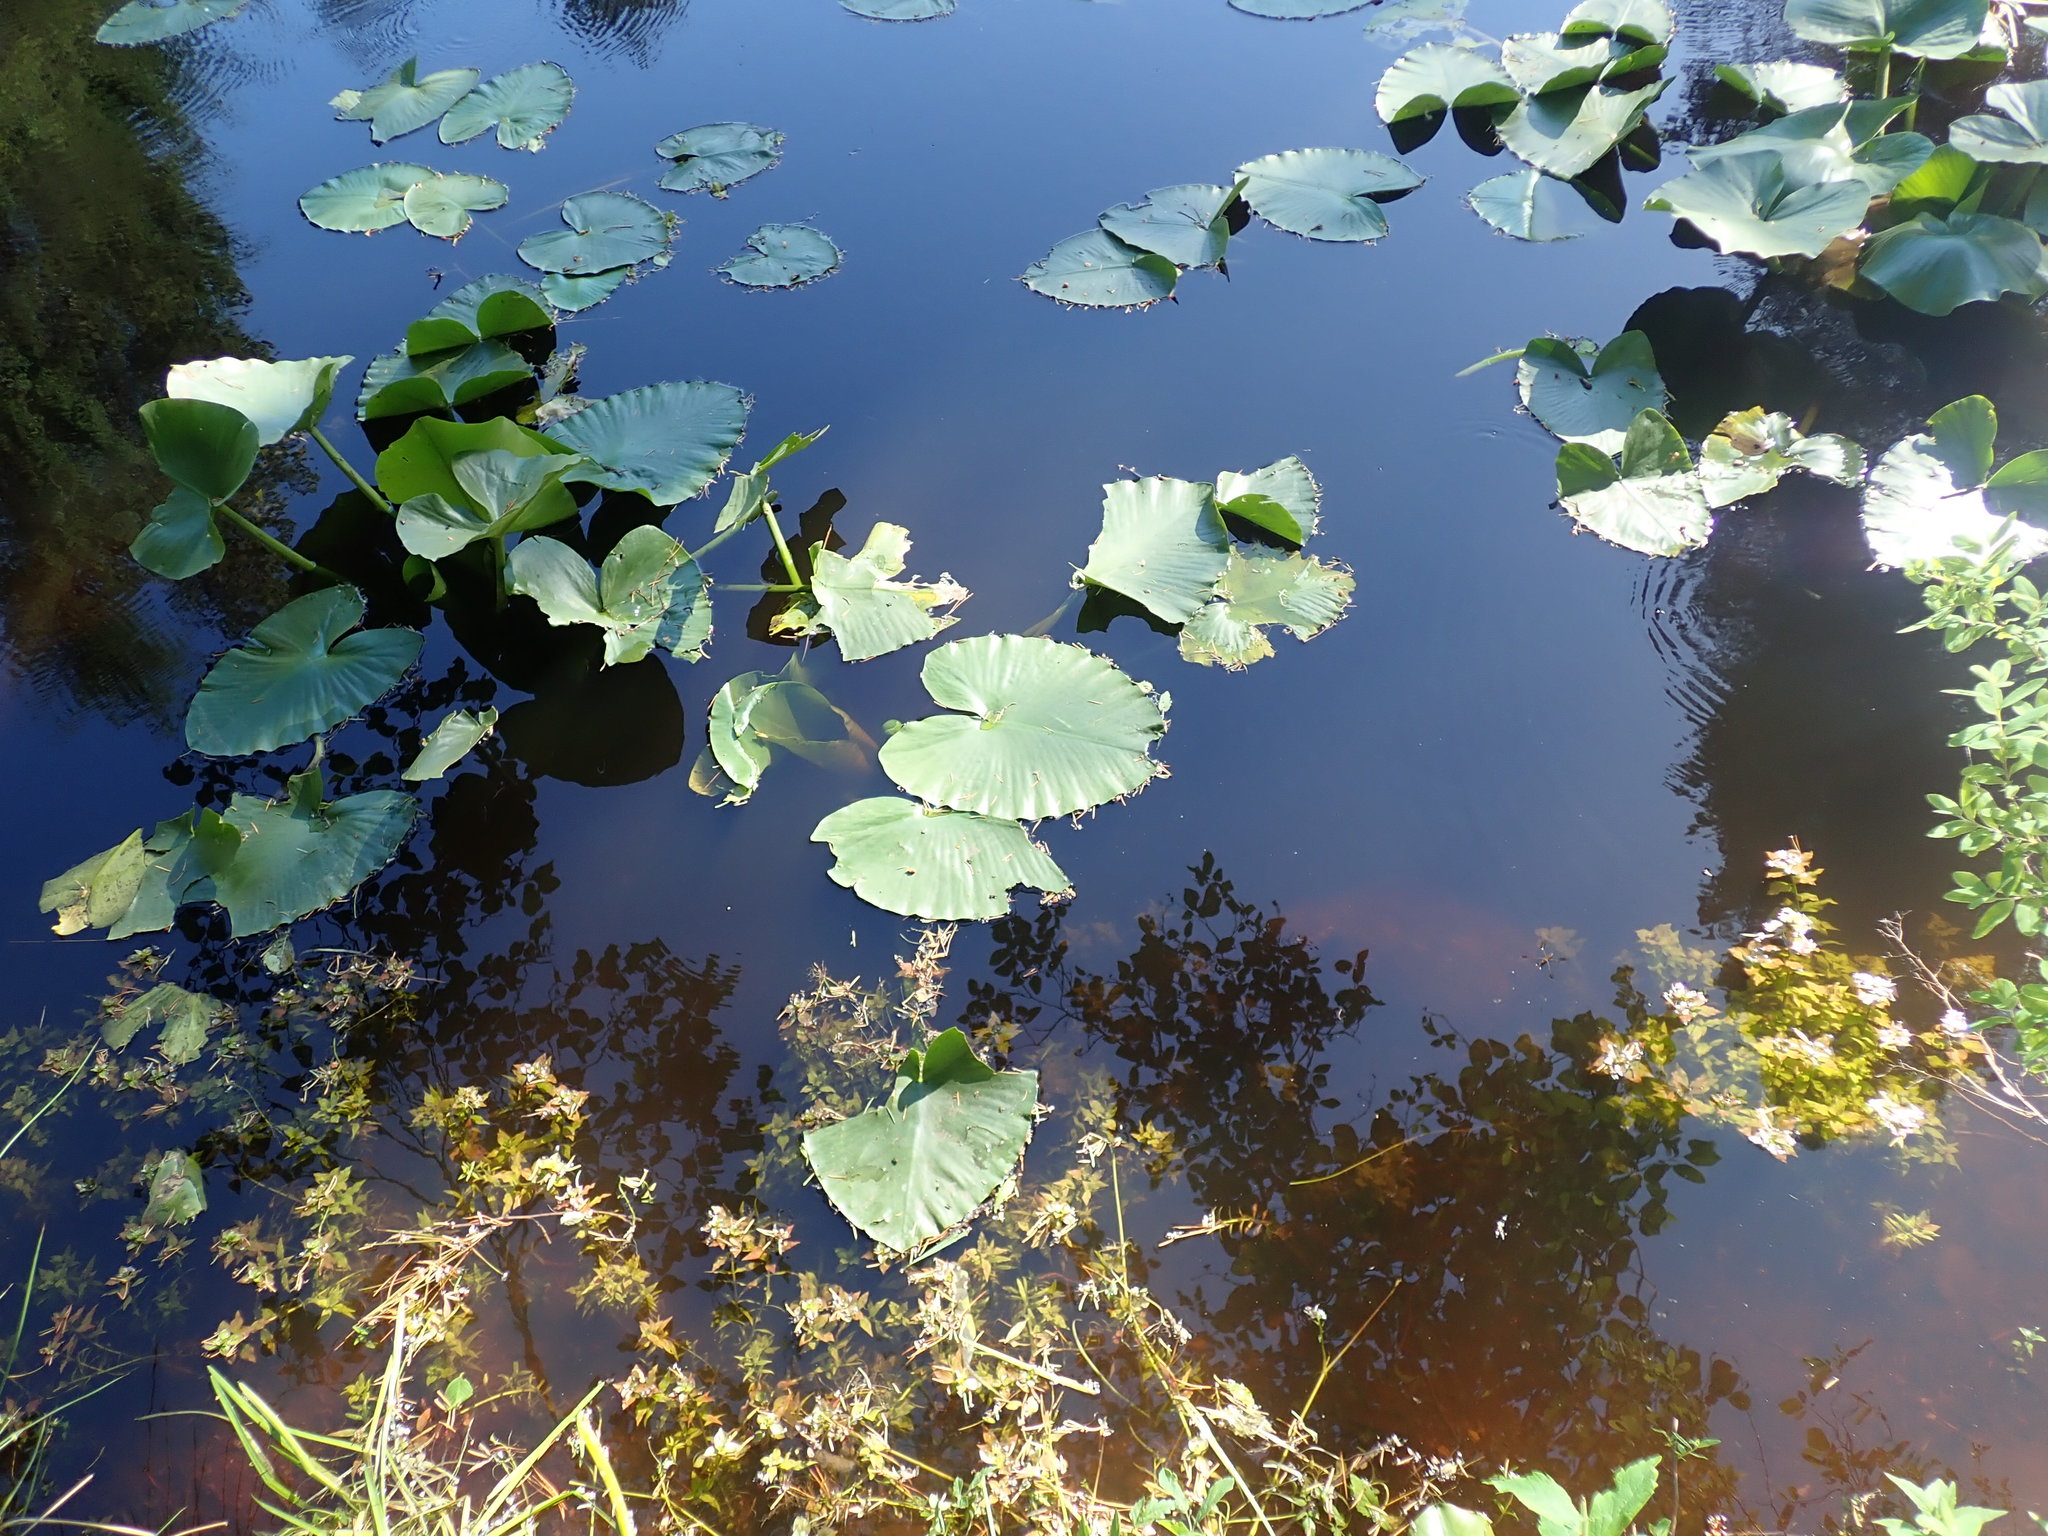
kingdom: Plantae
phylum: Tracheophyta
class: Magnoliopsida
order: Nymphaeales
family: Nymphaeaceae
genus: Nuphar
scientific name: Nuphar polysepala
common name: Rocky mountain cow-lily
